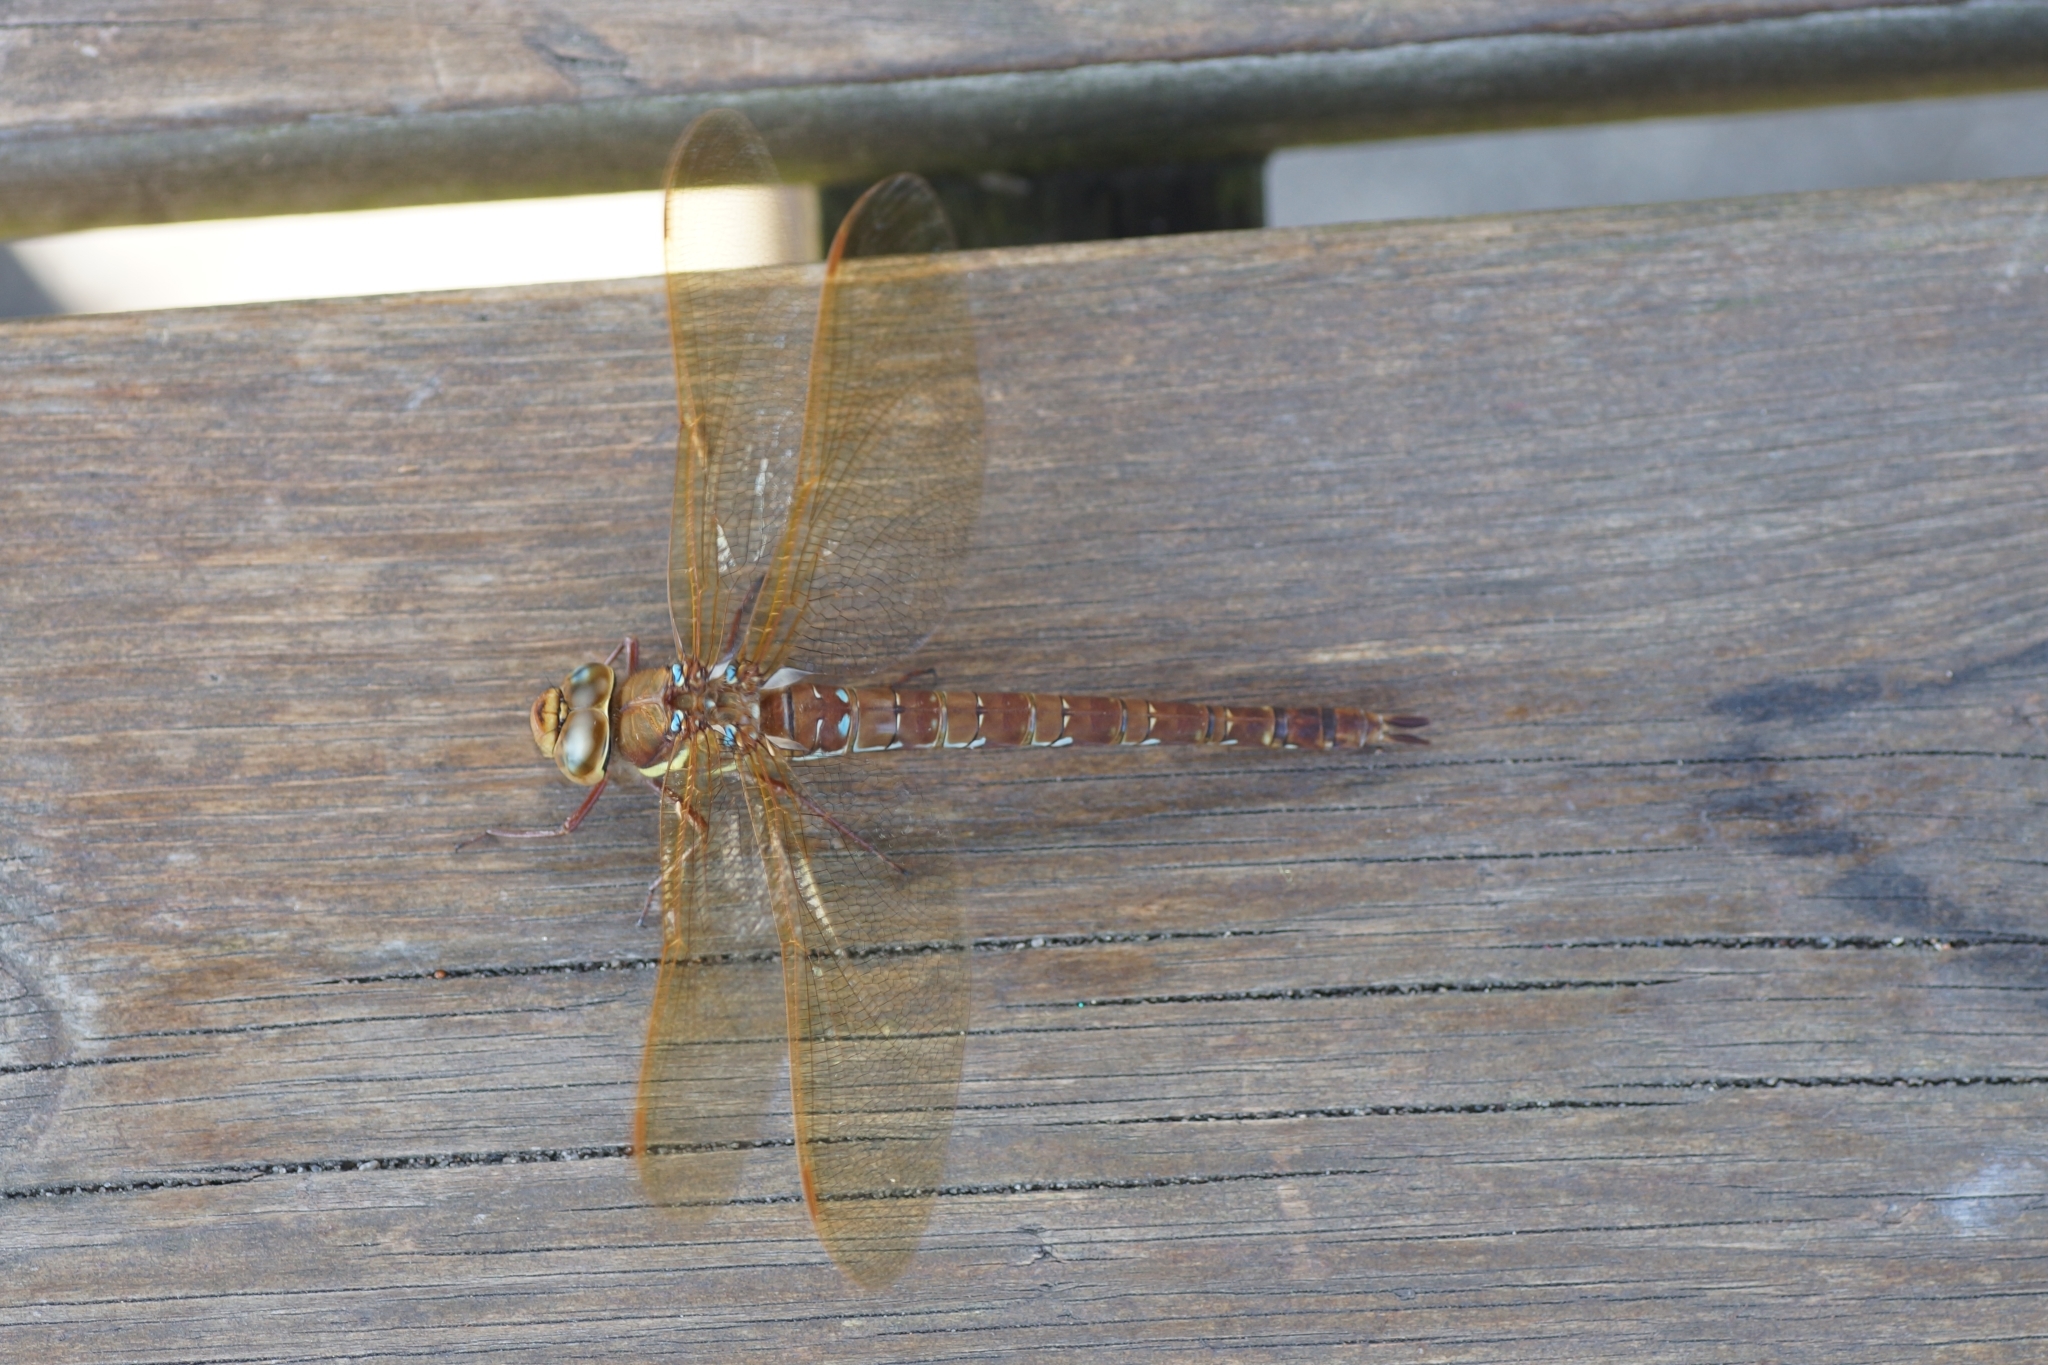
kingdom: Animalia
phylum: Arthropoda
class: Insecta
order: Odonata
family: Aeshnidae
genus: Aeshna
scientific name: Aeshna grandis
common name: Brown hawker
